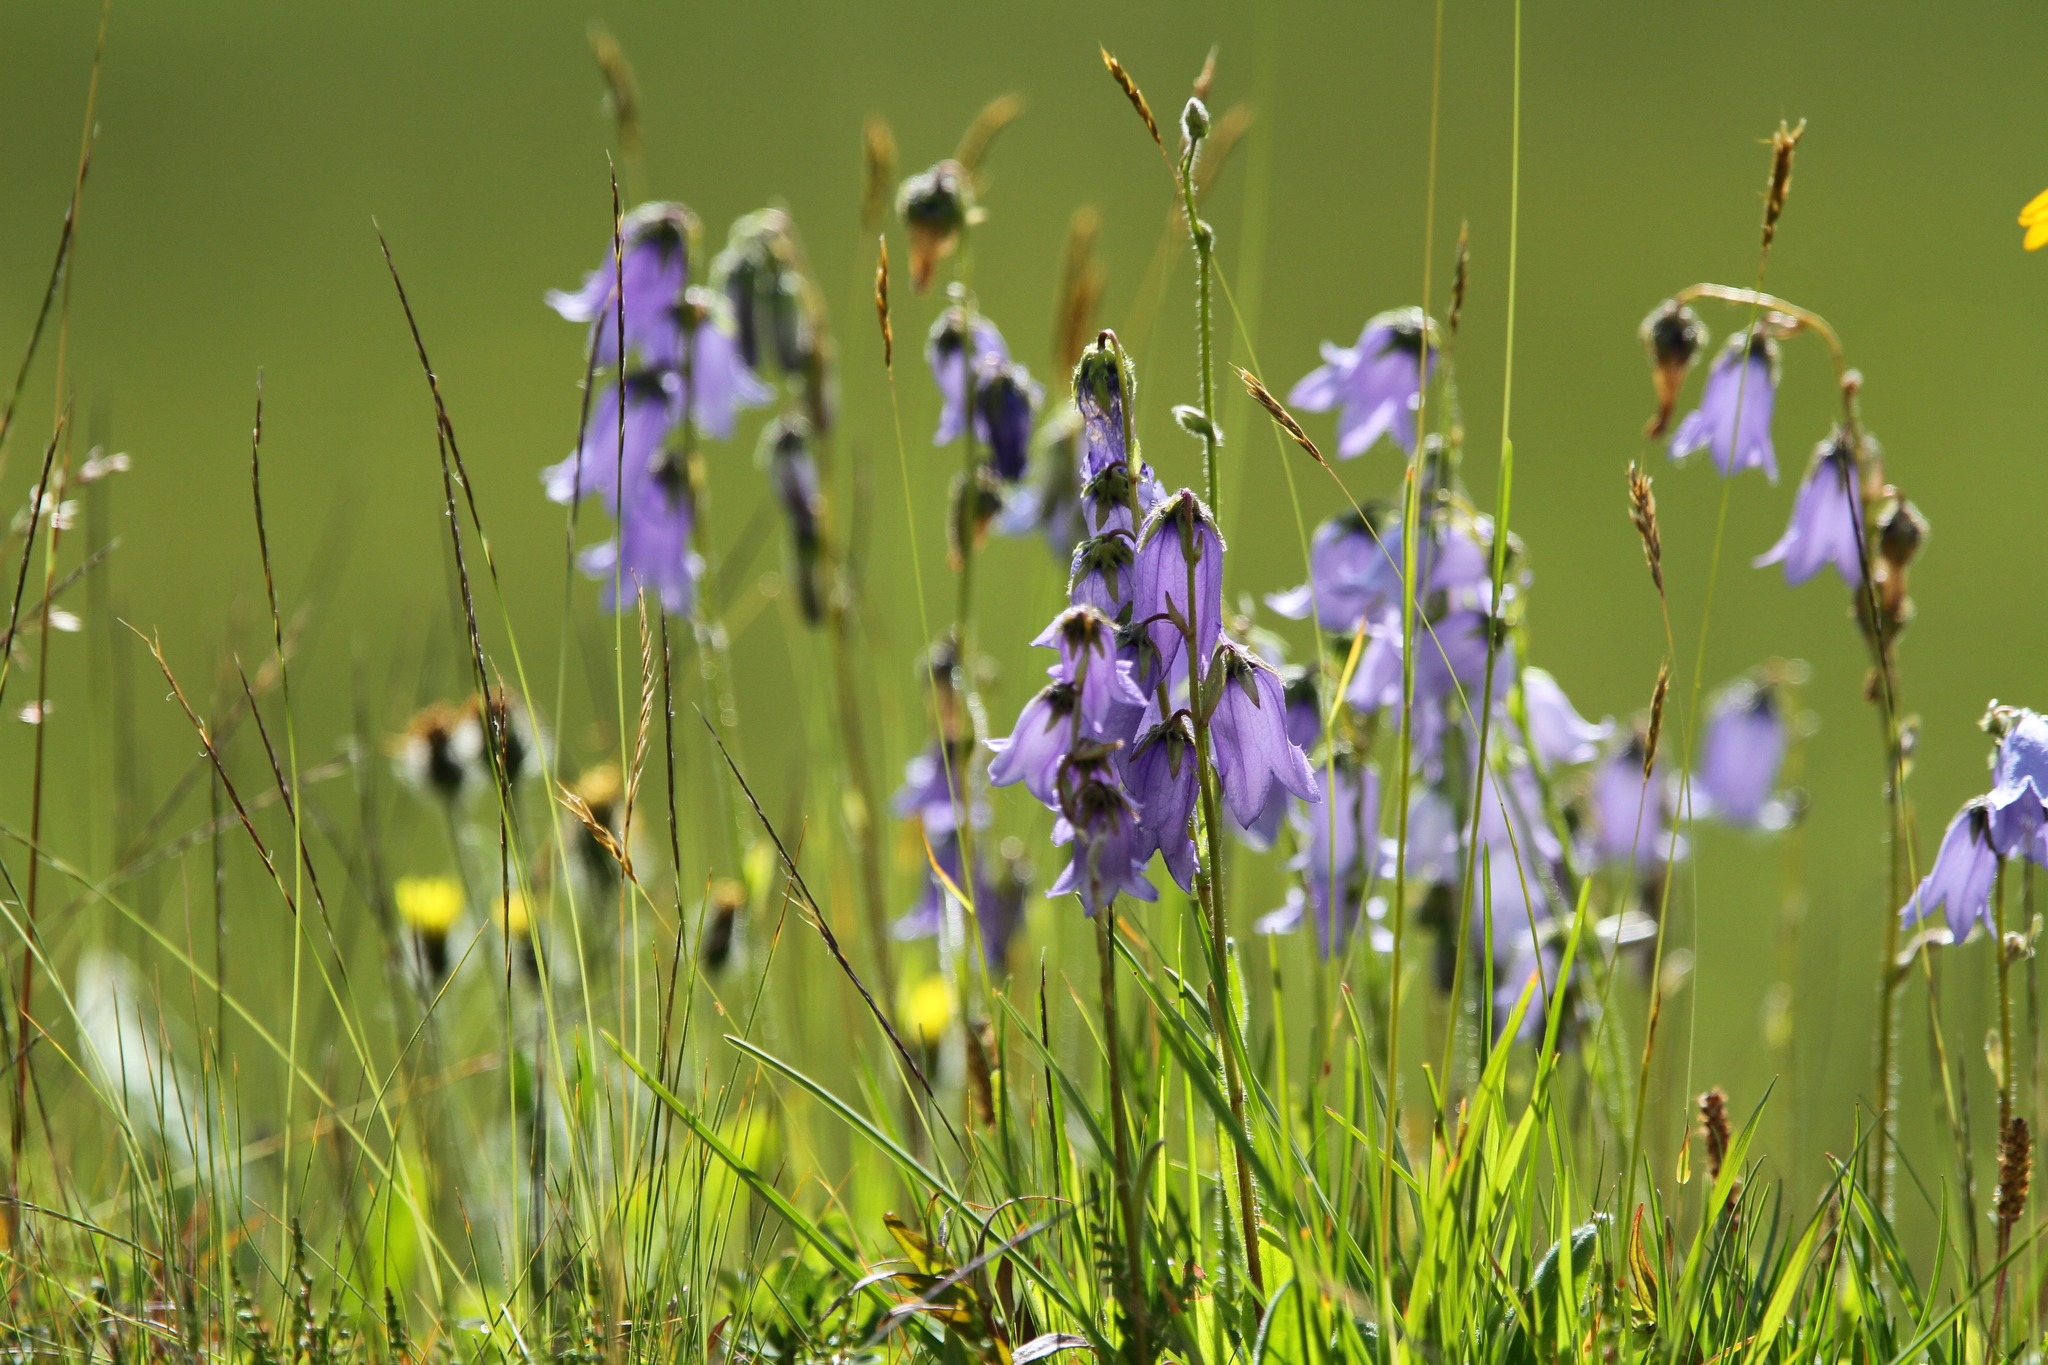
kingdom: Plantae
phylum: Tracheophyta
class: Magnoliopsida
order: Asterales
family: Campanulaceae
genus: Campanula
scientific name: Campanula barbata
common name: Bearded bellflower
